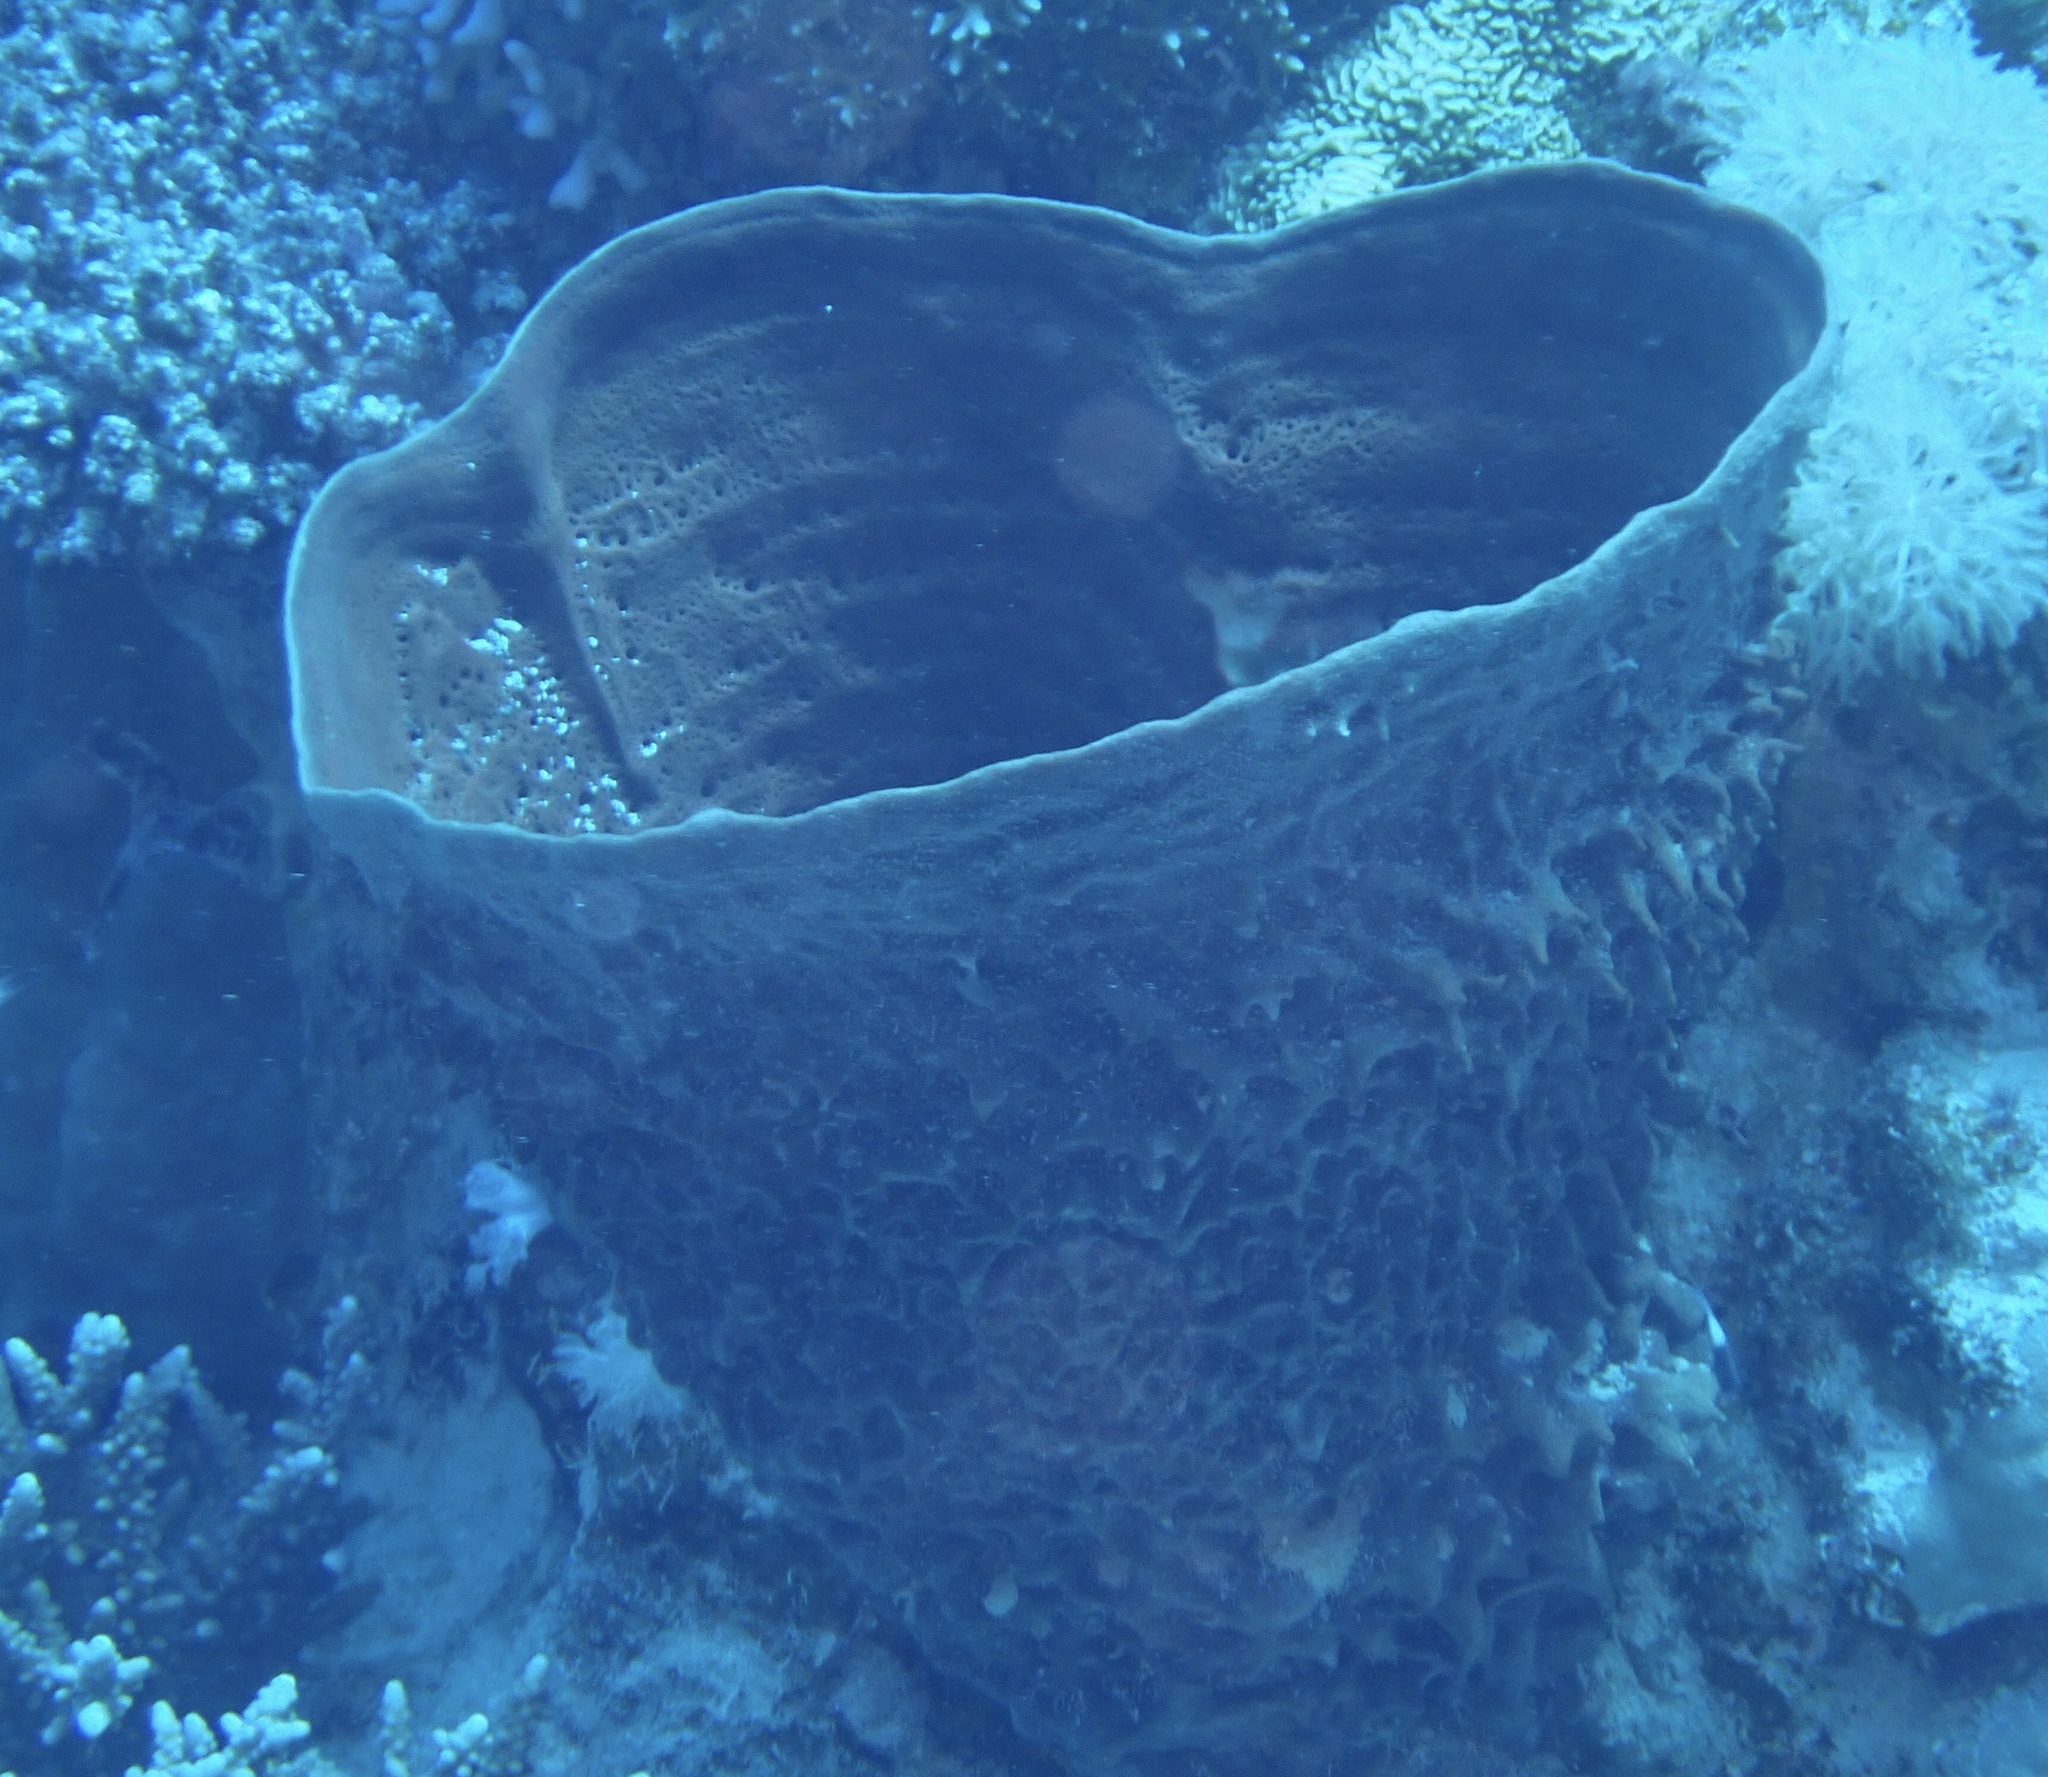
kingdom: Animalia
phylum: Porifera
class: Demospongiae
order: Haplosclerida
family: Callyspongiidae
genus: Callyspongia
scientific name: Callyspongia crassa
